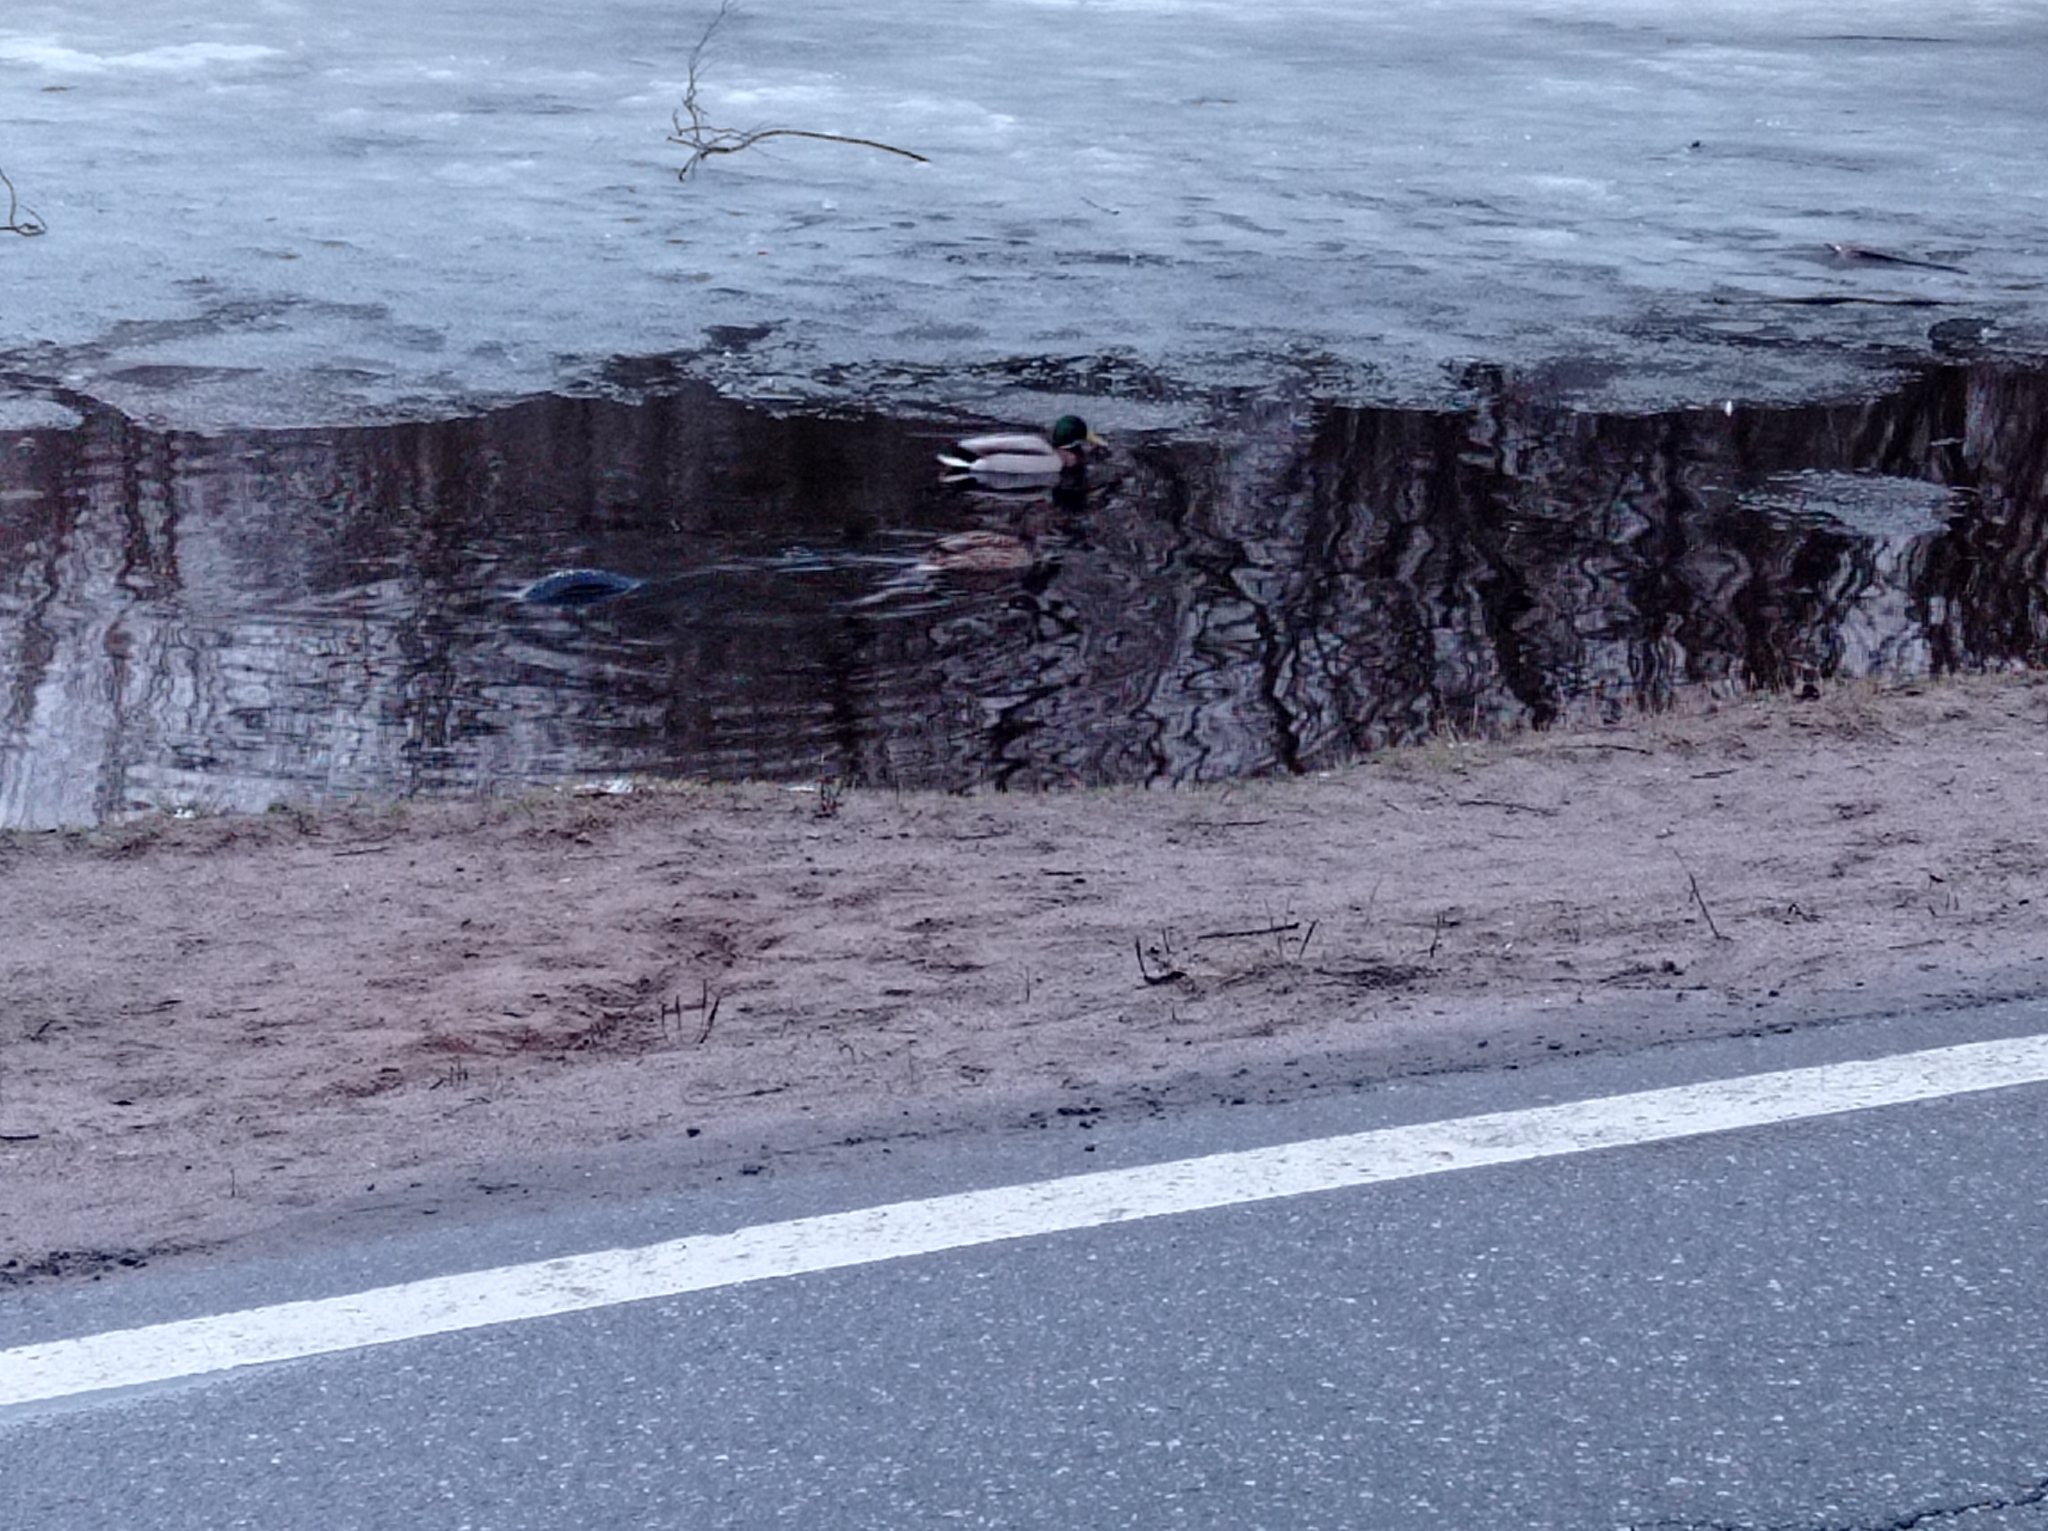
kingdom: Animalia
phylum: Chordata
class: Aves
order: Anseriformes
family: Anatidae
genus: Anas
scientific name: Anas platyrhynchos
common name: Mallard
